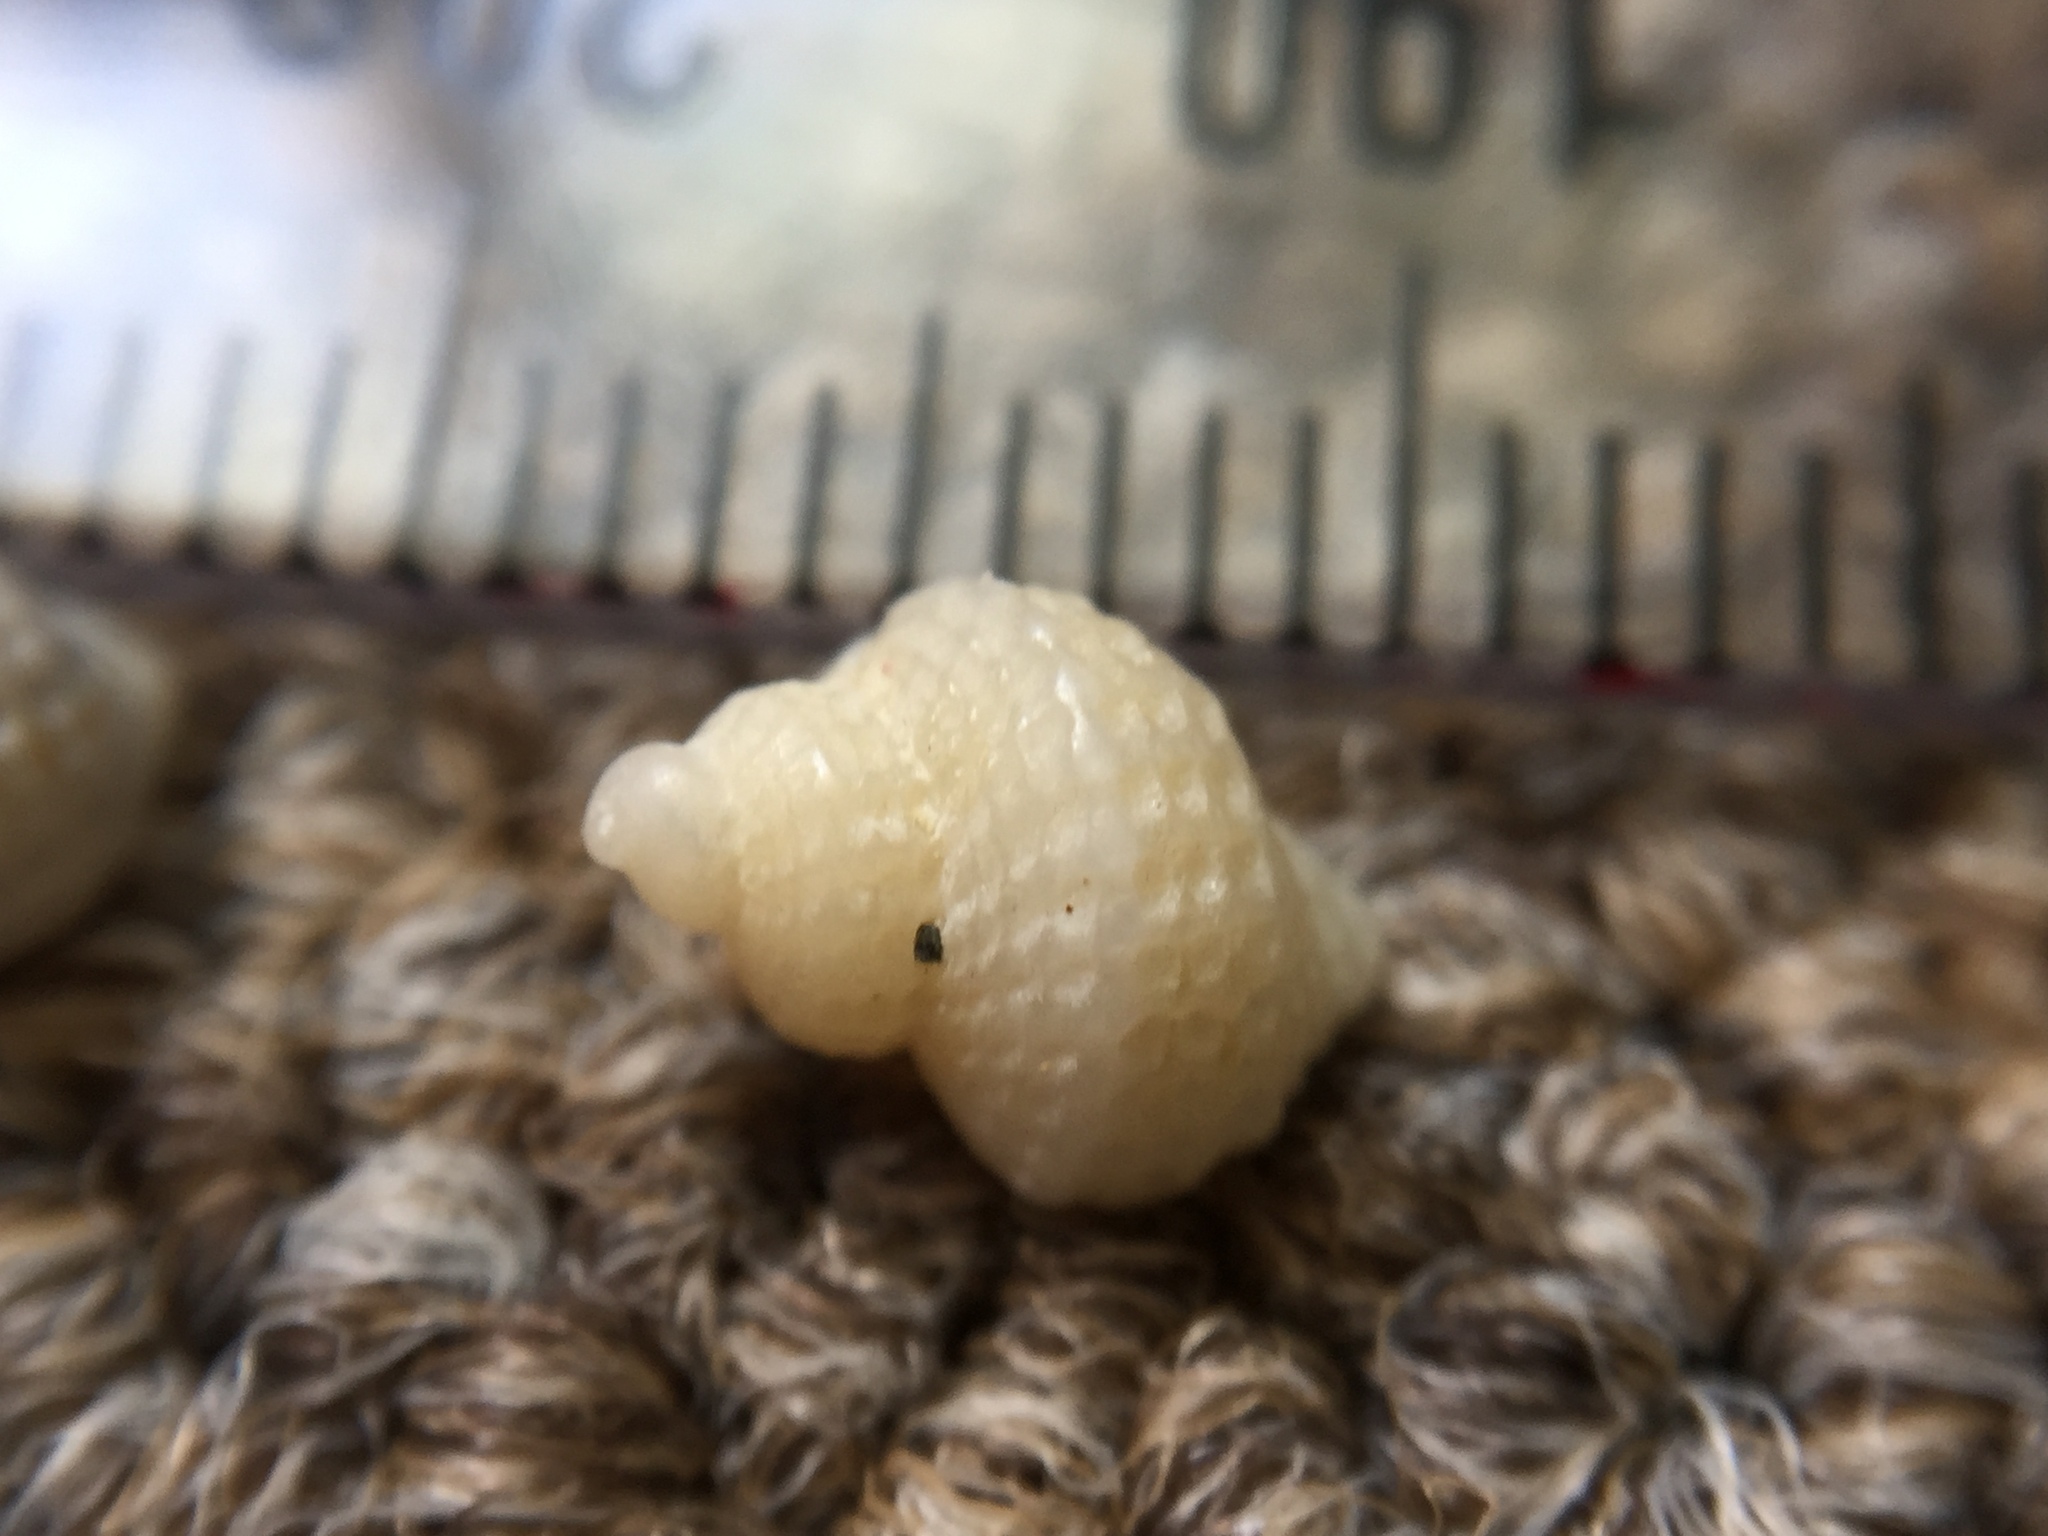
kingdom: Animalia
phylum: Mollusca
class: Gastropoda
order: Littorinimorpha
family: Capulidae
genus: Trichosirius
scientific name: Trichosirius inornatus
